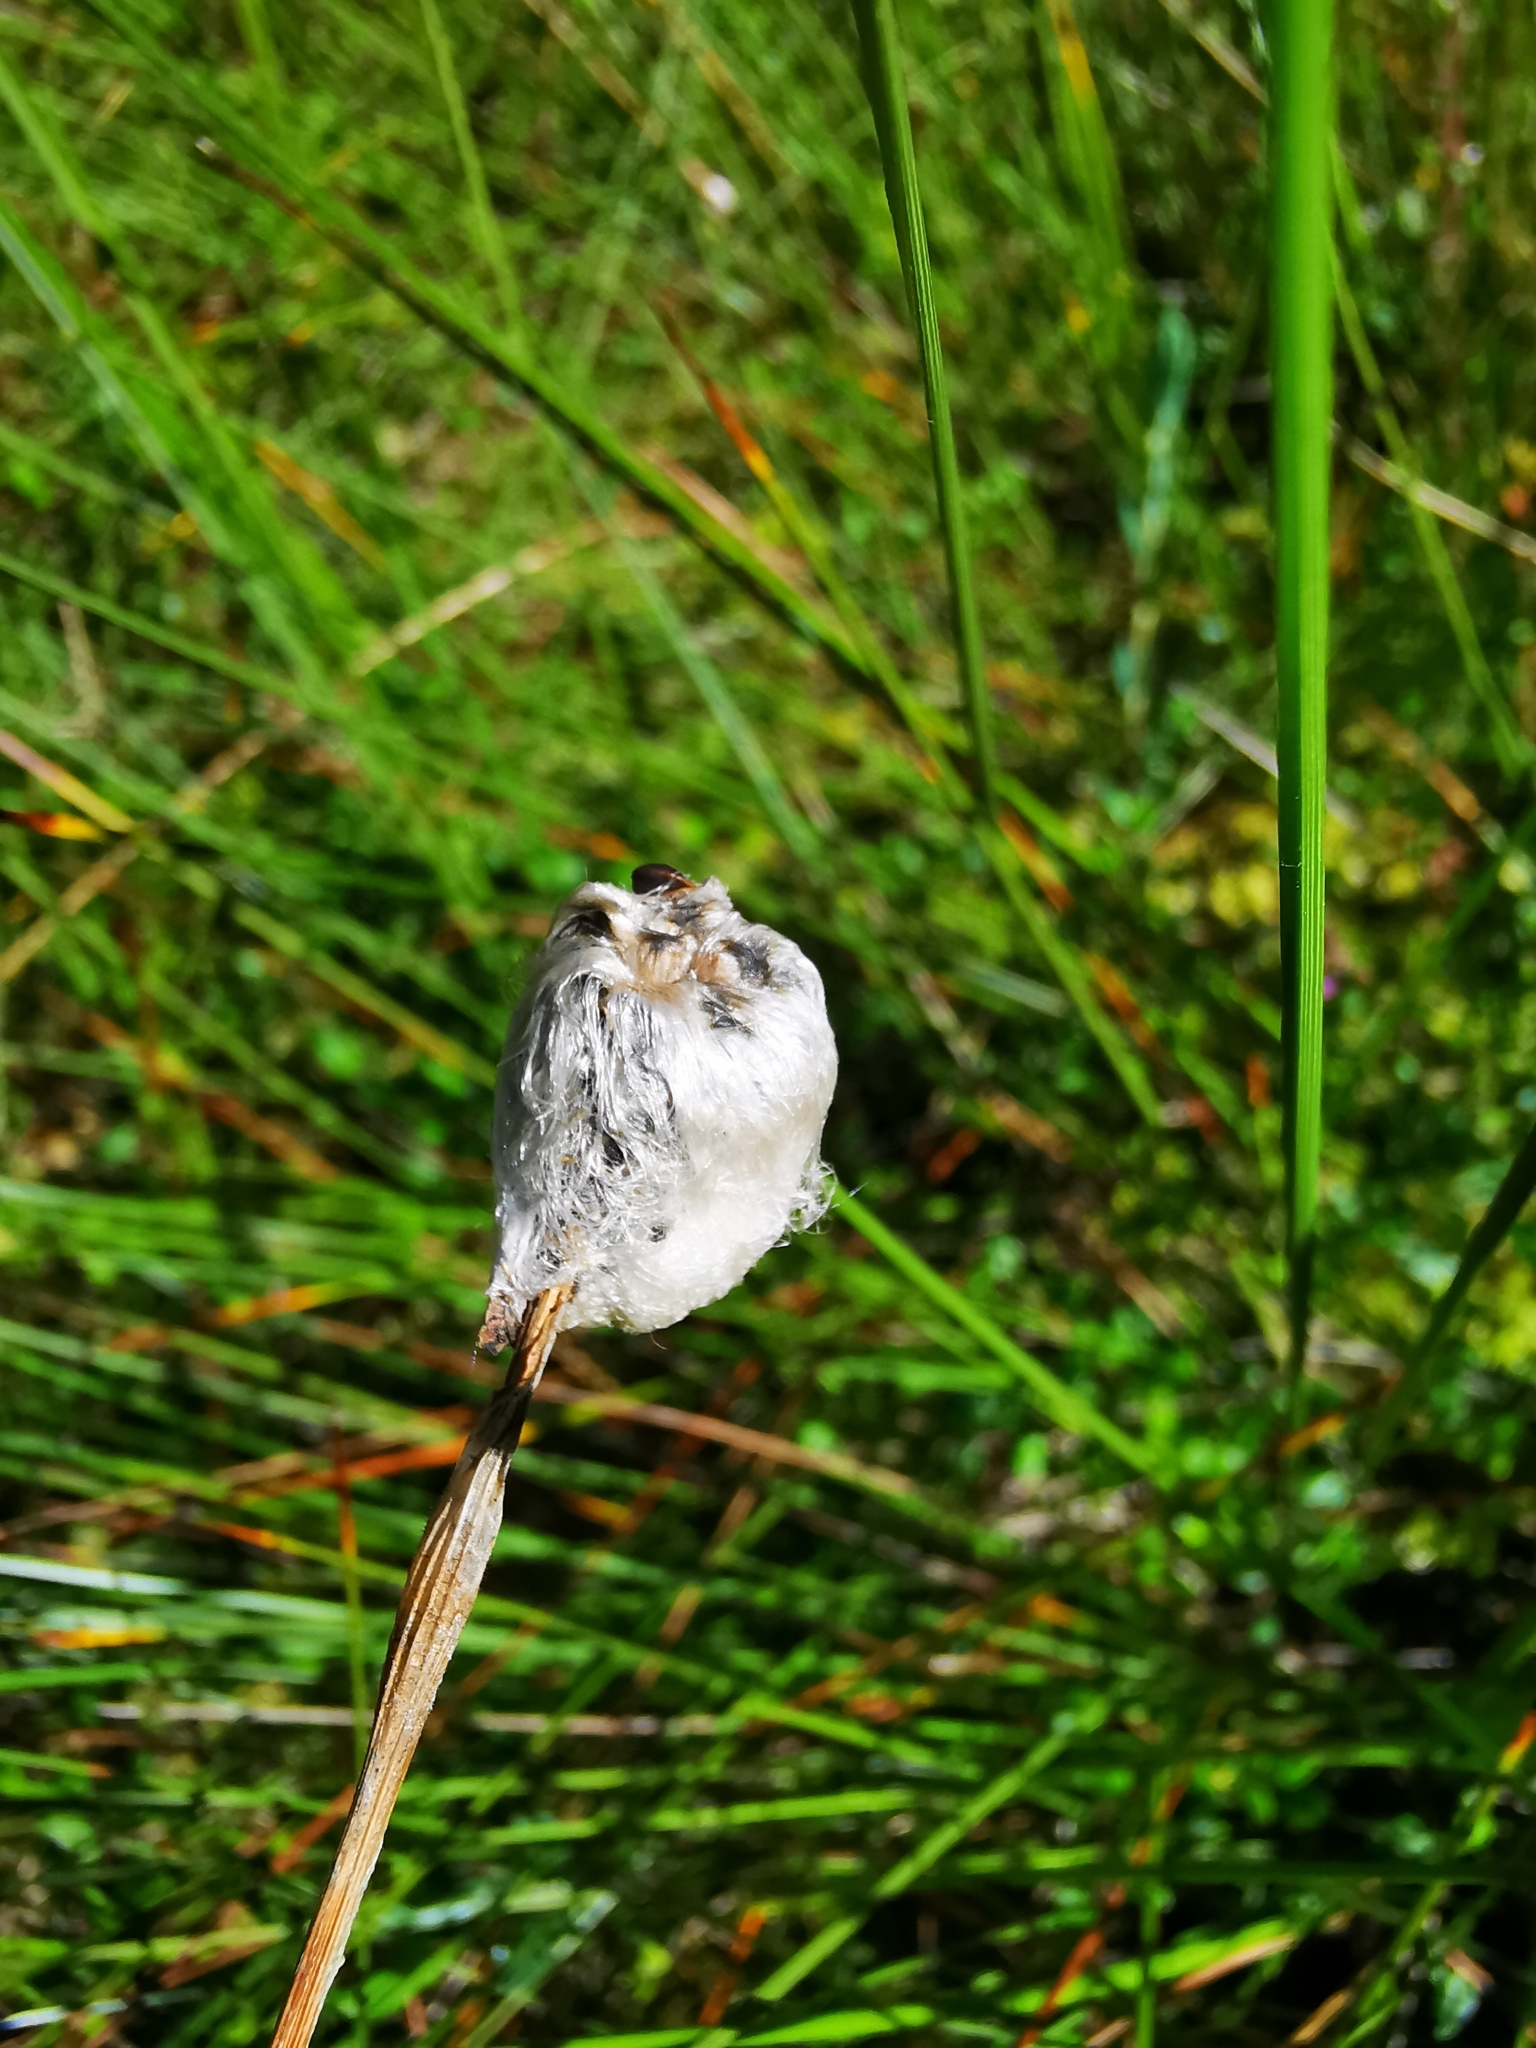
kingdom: Plantae
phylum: Tracheophyta
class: Liliopsida
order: Poales
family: Cyperaceae
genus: Eriophorum
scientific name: Eriophorum vaginatum
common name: Hare's-tail cottongrass
